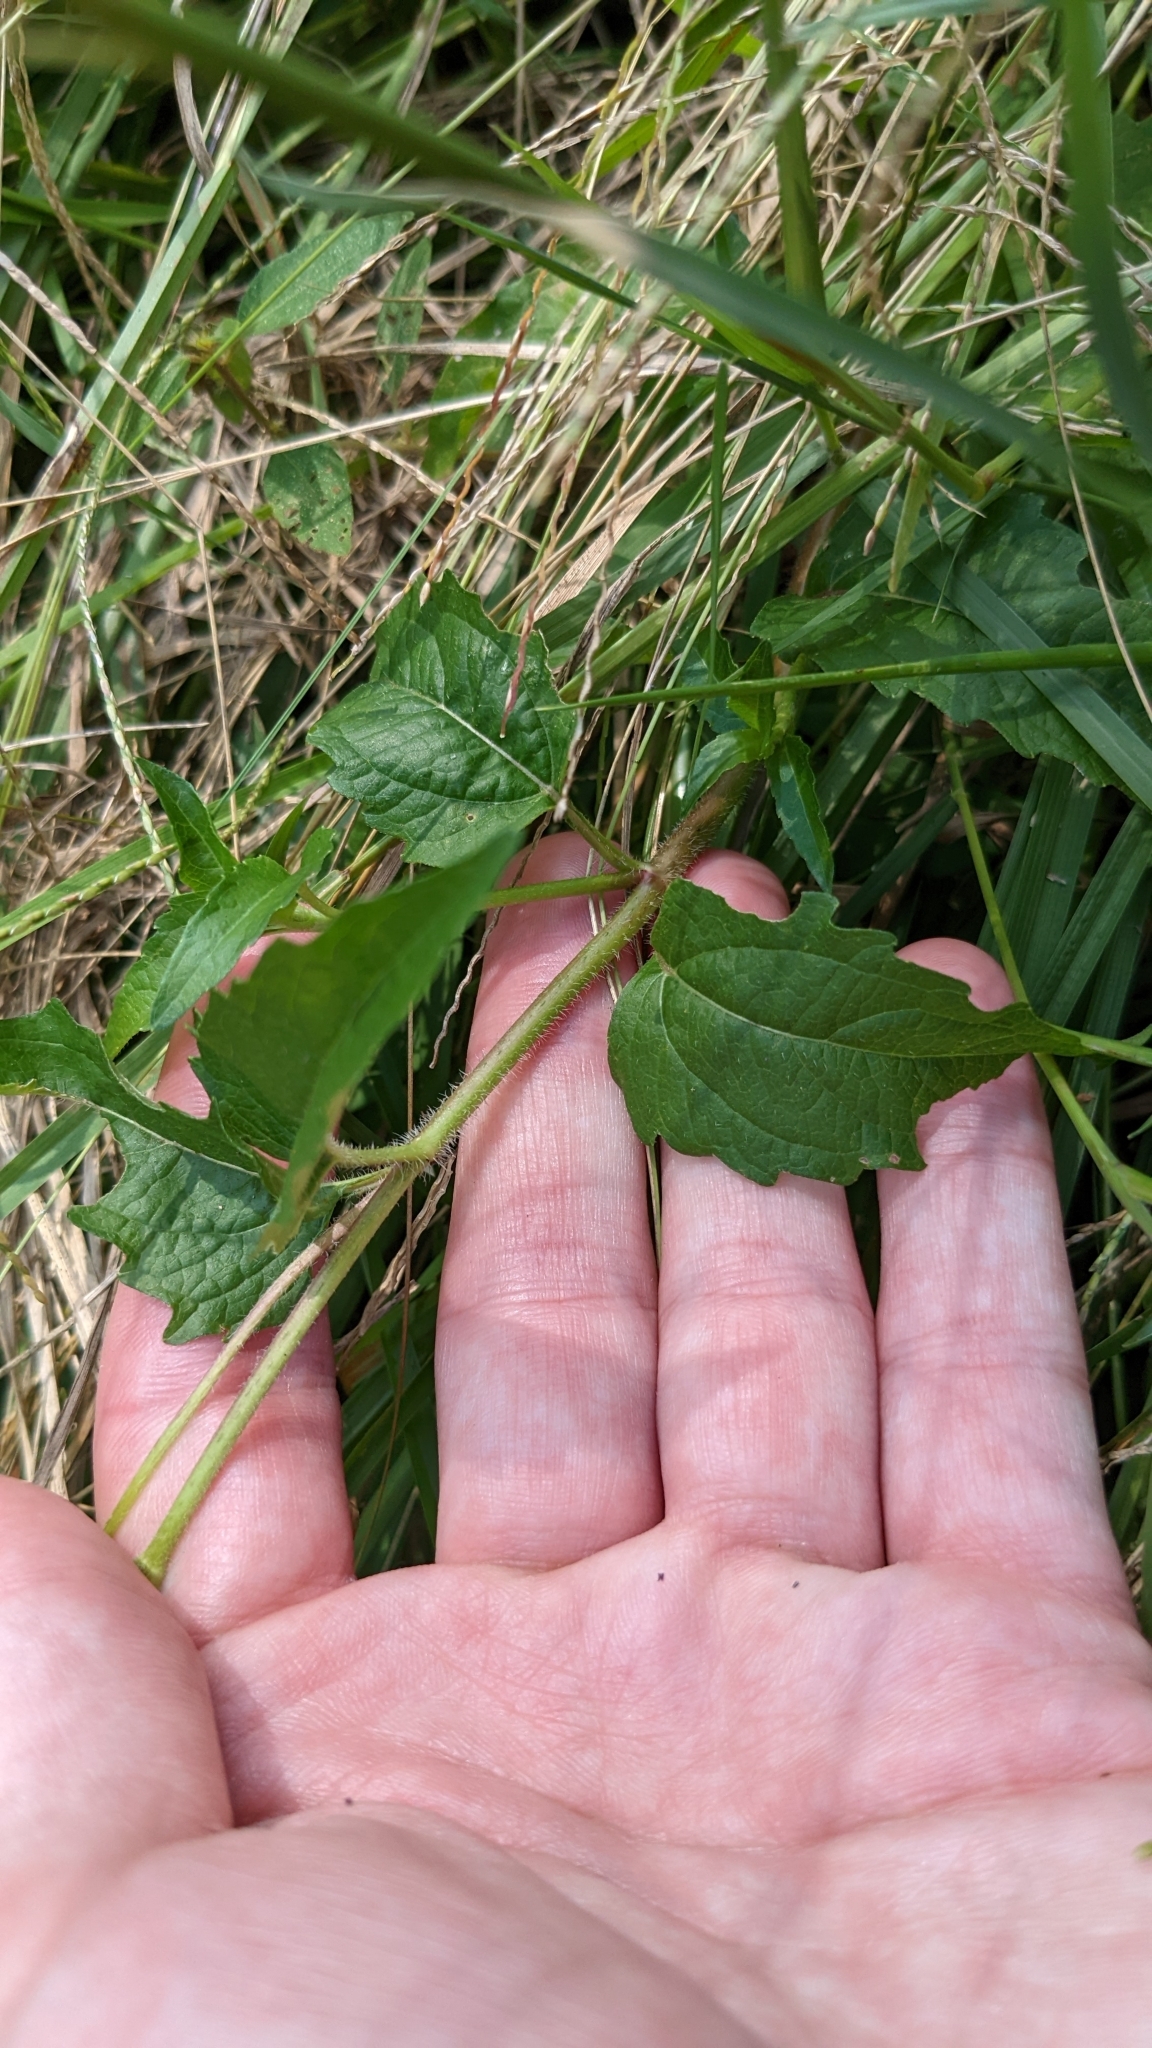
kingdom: Plantae
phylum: Tracheophyta
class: Magnoliopsida
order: Asterales
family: Asteraceae
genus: Acmella
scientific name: Acmella repens
